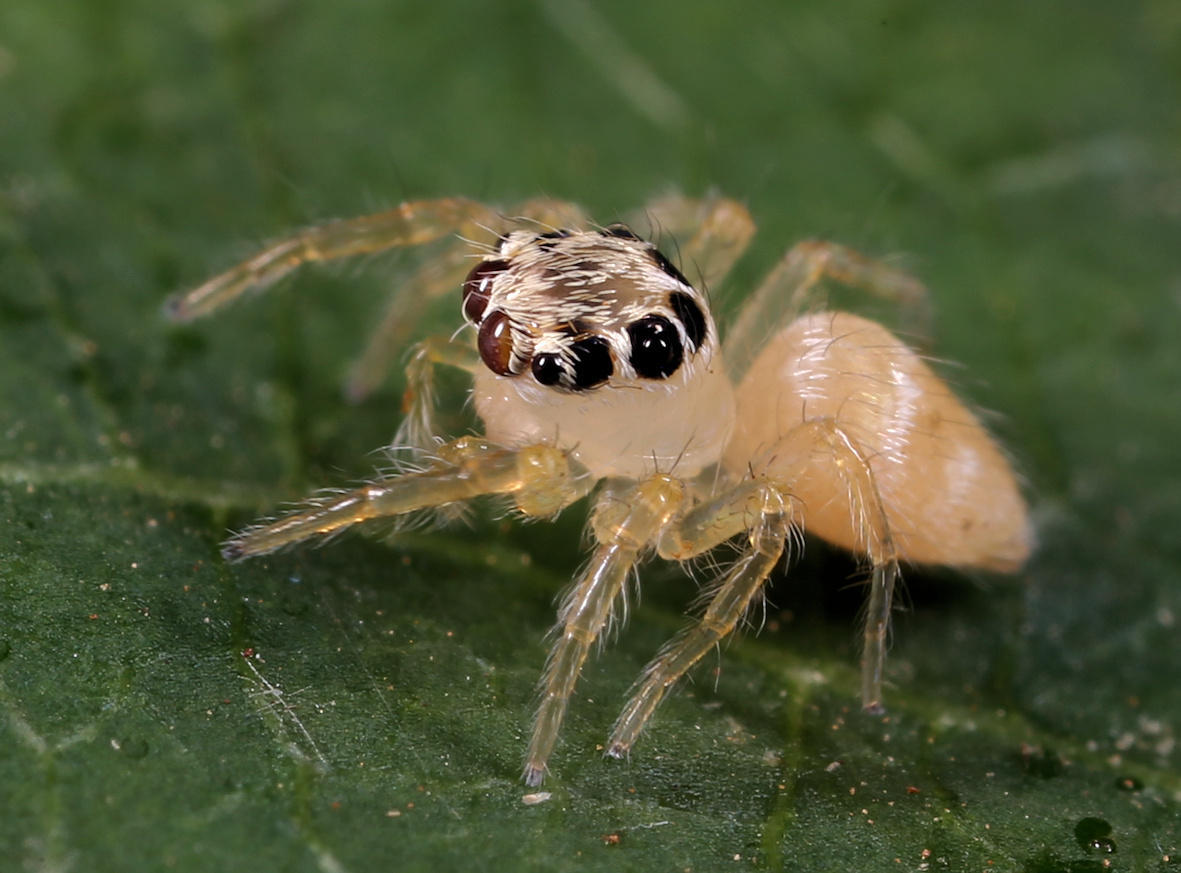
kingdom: Animalia
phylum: Arthropoda
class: Arachnida
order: Araneae
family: Salticidae
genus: Brancus
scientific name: Brancus mustelus
